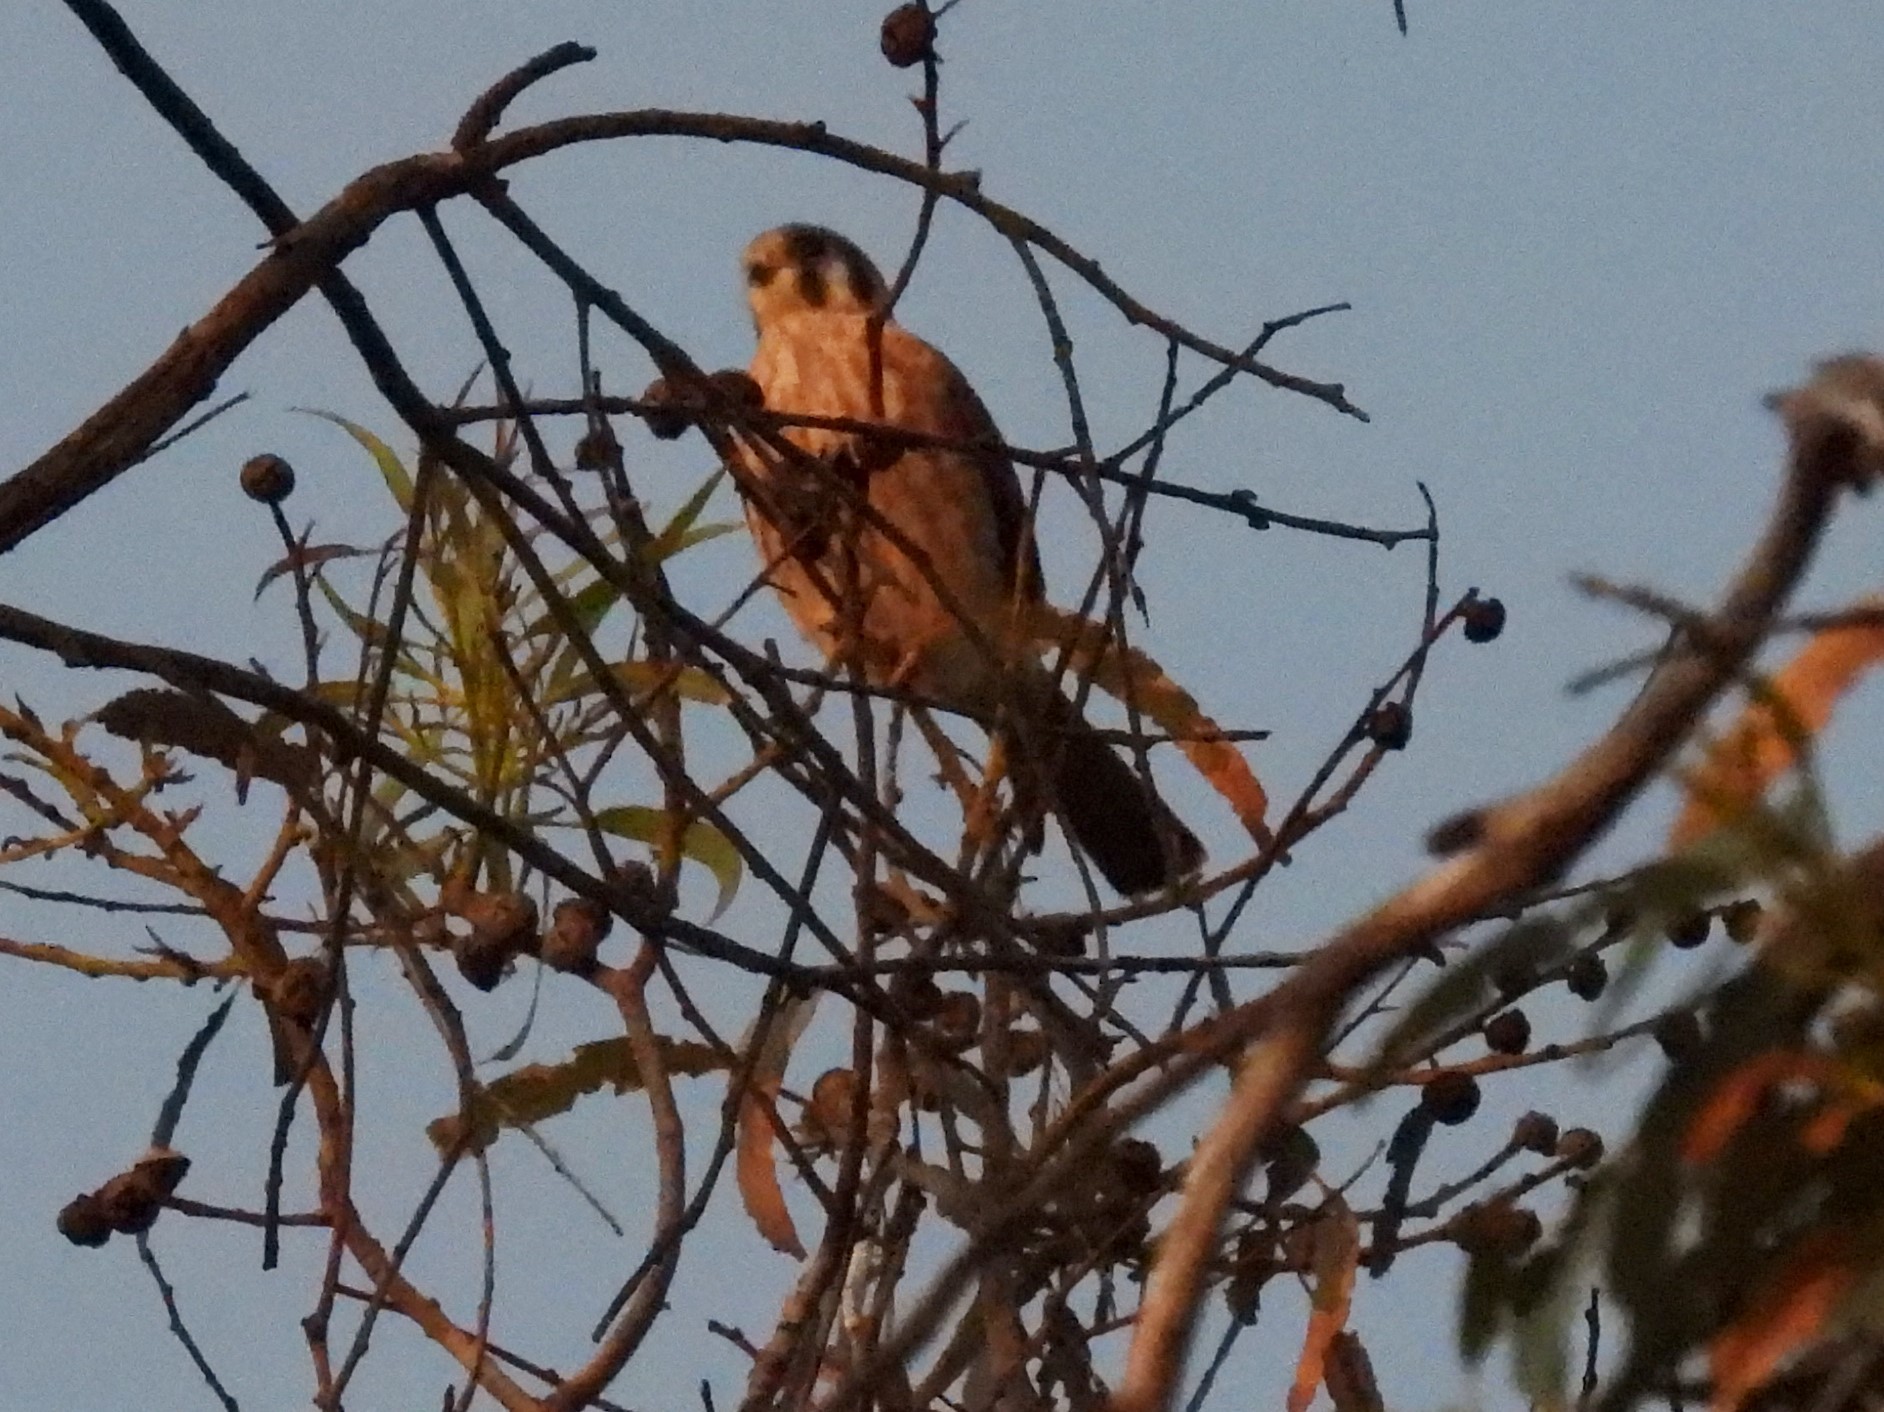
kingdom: Animalia
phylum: Chordata
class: Aves
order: Falconiformes
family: Falconidae
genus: Falco
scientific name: Falco sparverius
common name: American kestrel
